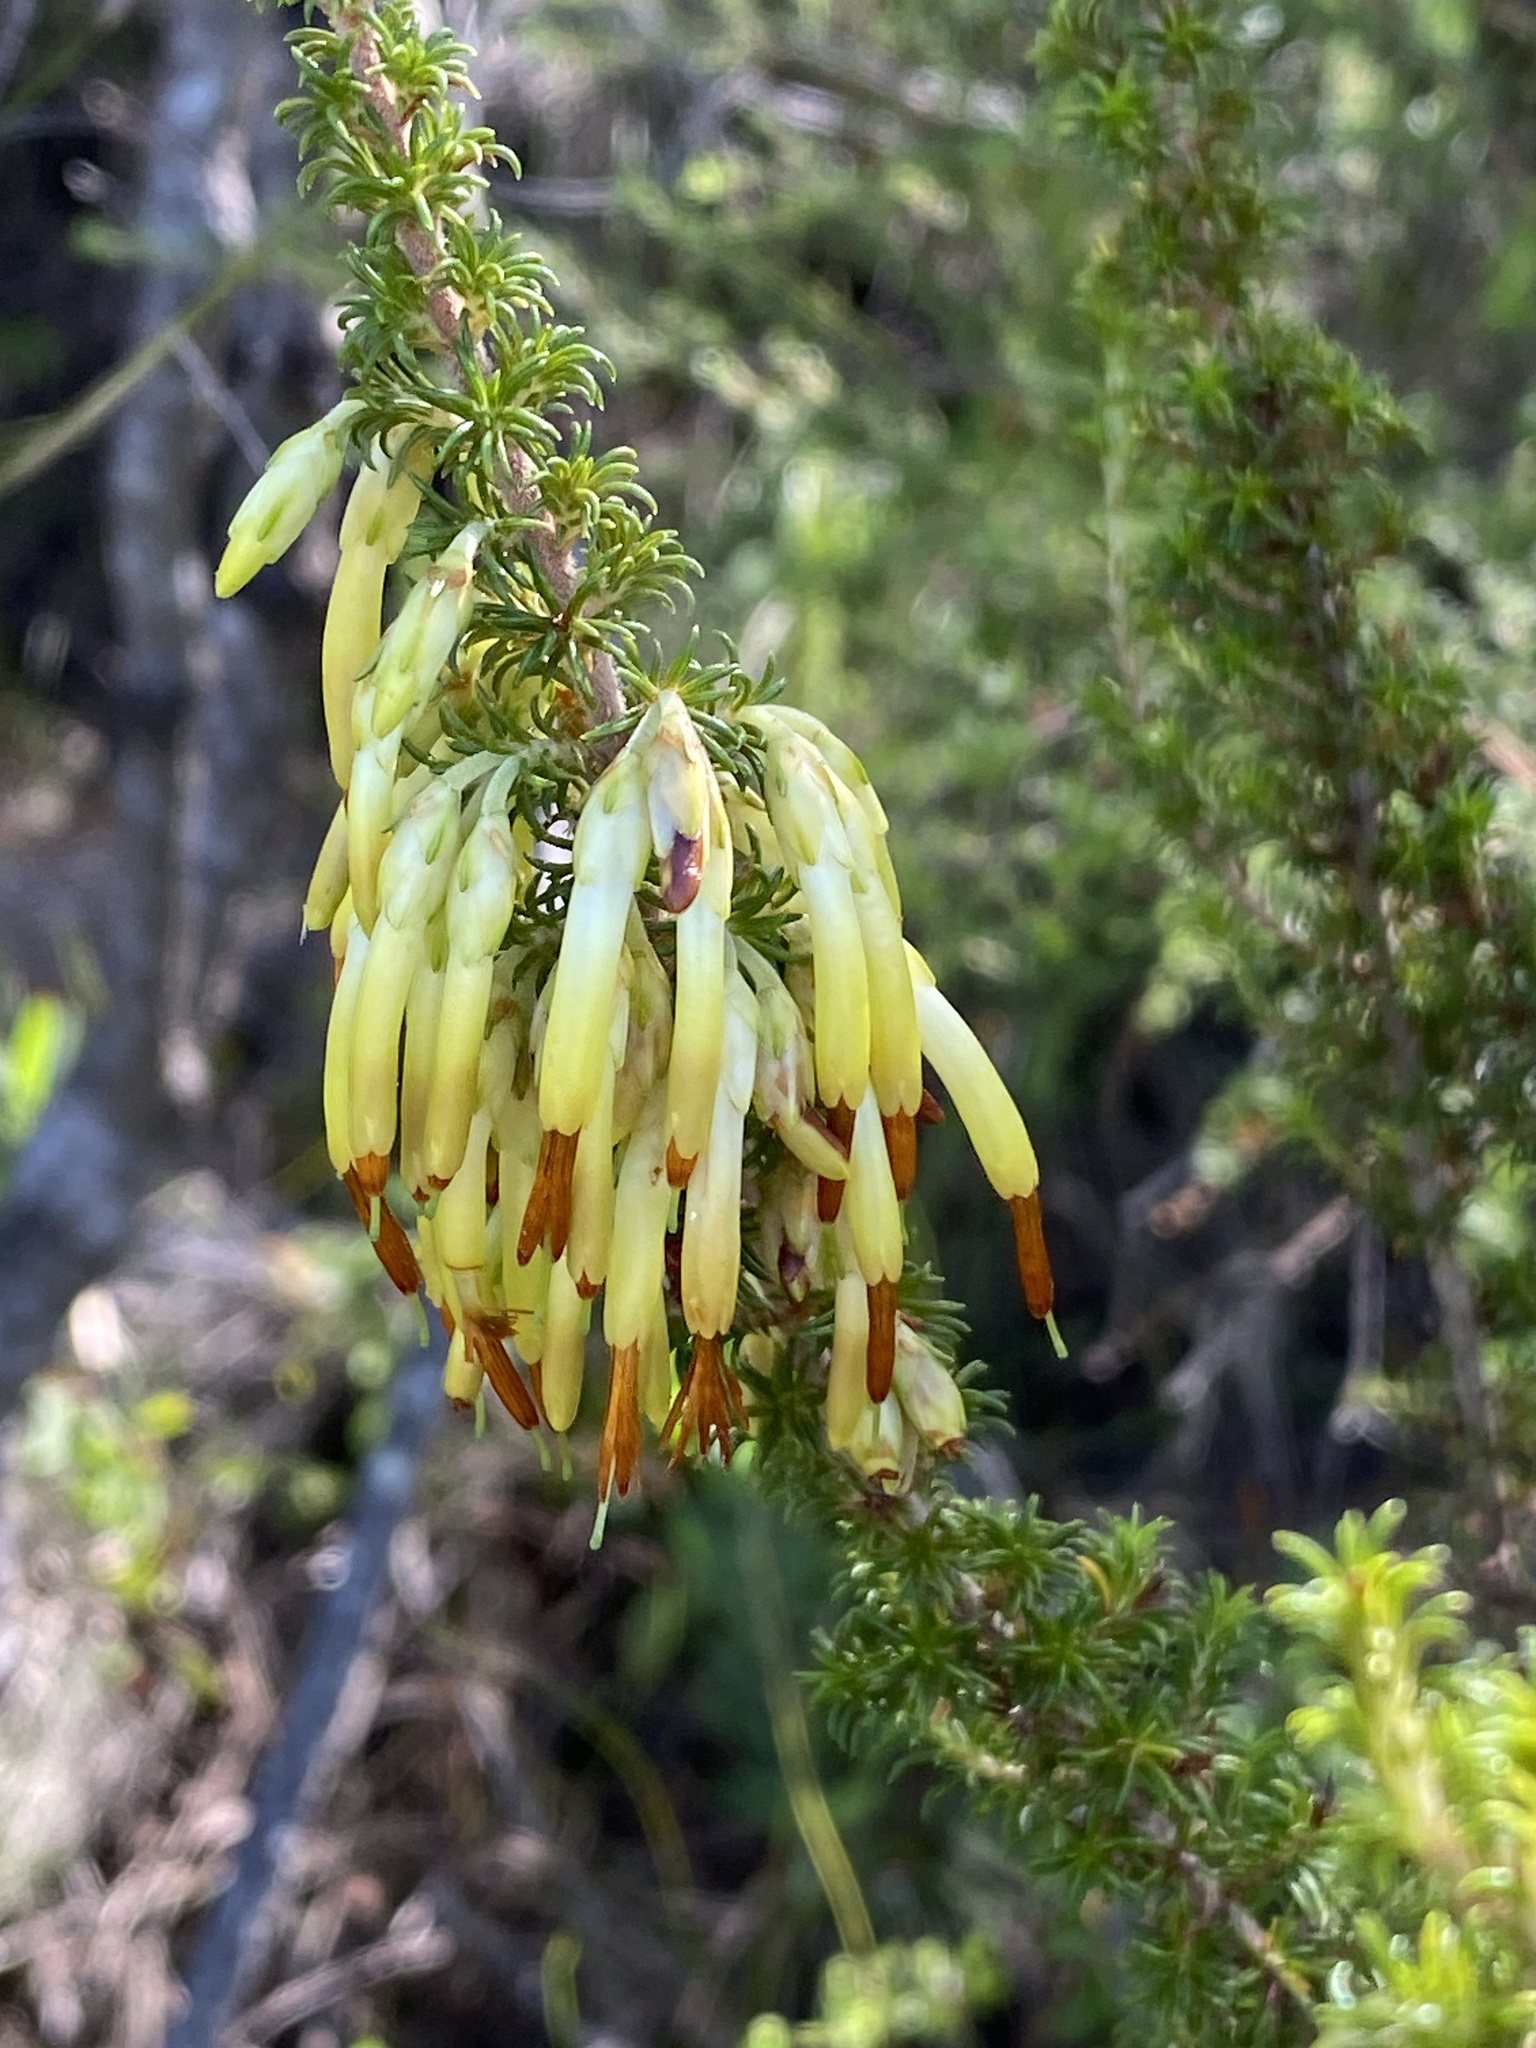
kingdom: Plantae
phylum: Tracheophyta
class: Magnoliopsida
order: Ericales
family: Ericaceae
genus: Erica
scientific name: Erica coccinea
